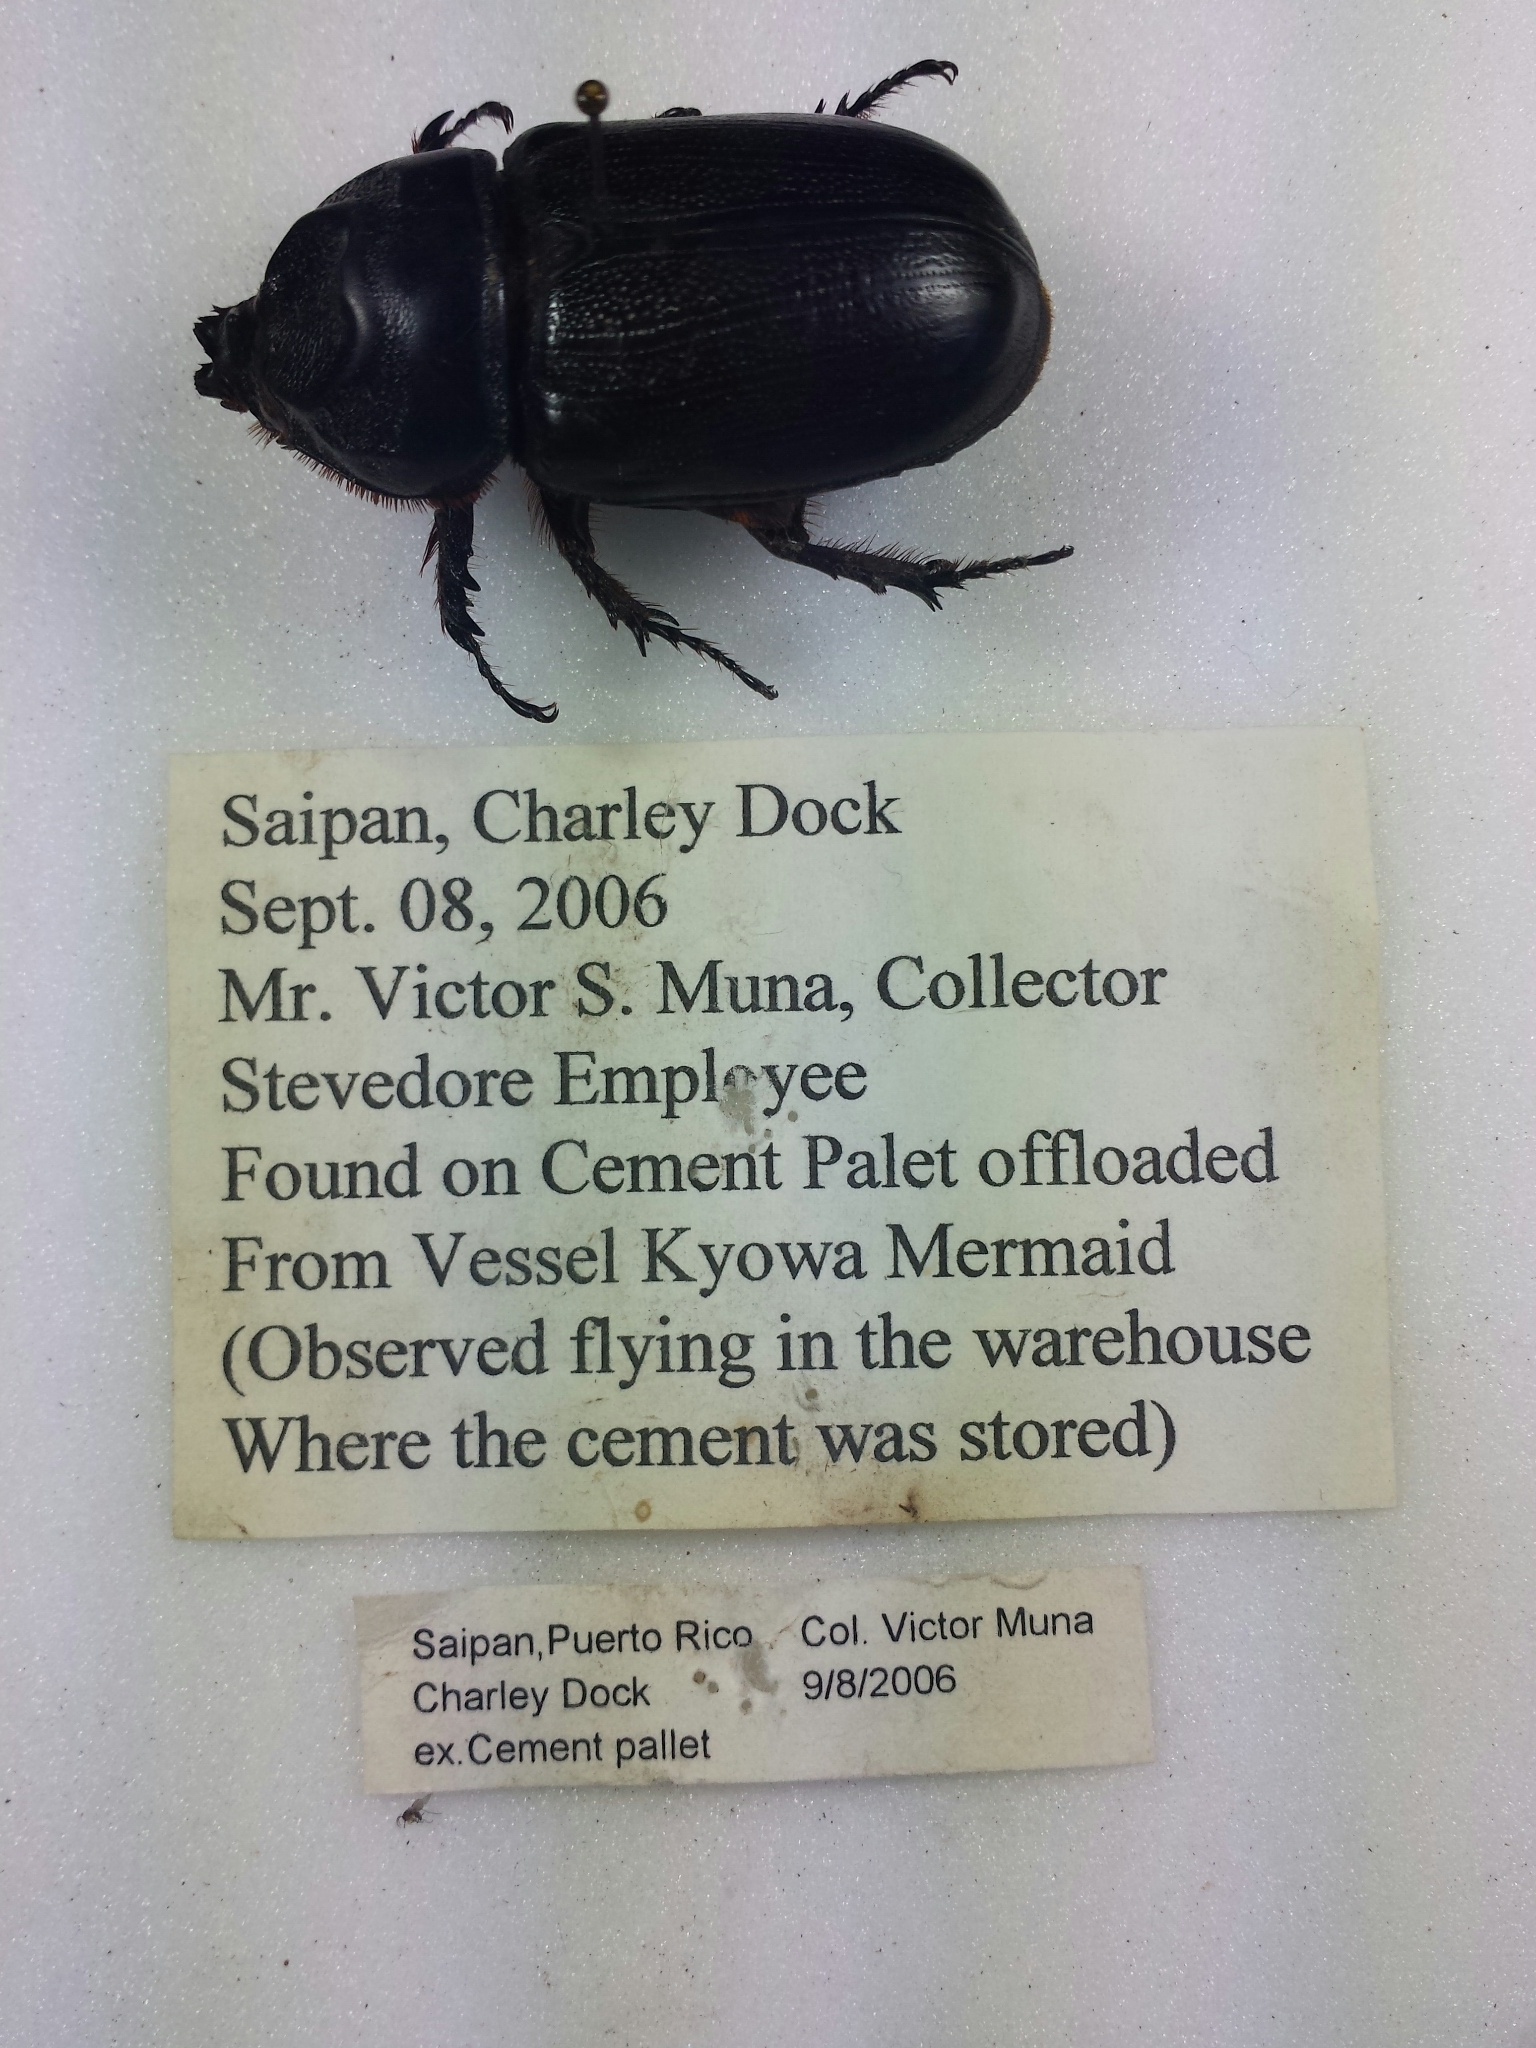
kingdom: Animalia
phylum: Arthropoda
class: Insecta
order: Coleoptera
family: Scarabaeidae
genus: Oryctes
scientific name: Oryctes rhinoceros
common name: Coconut rhinoceros beetle
